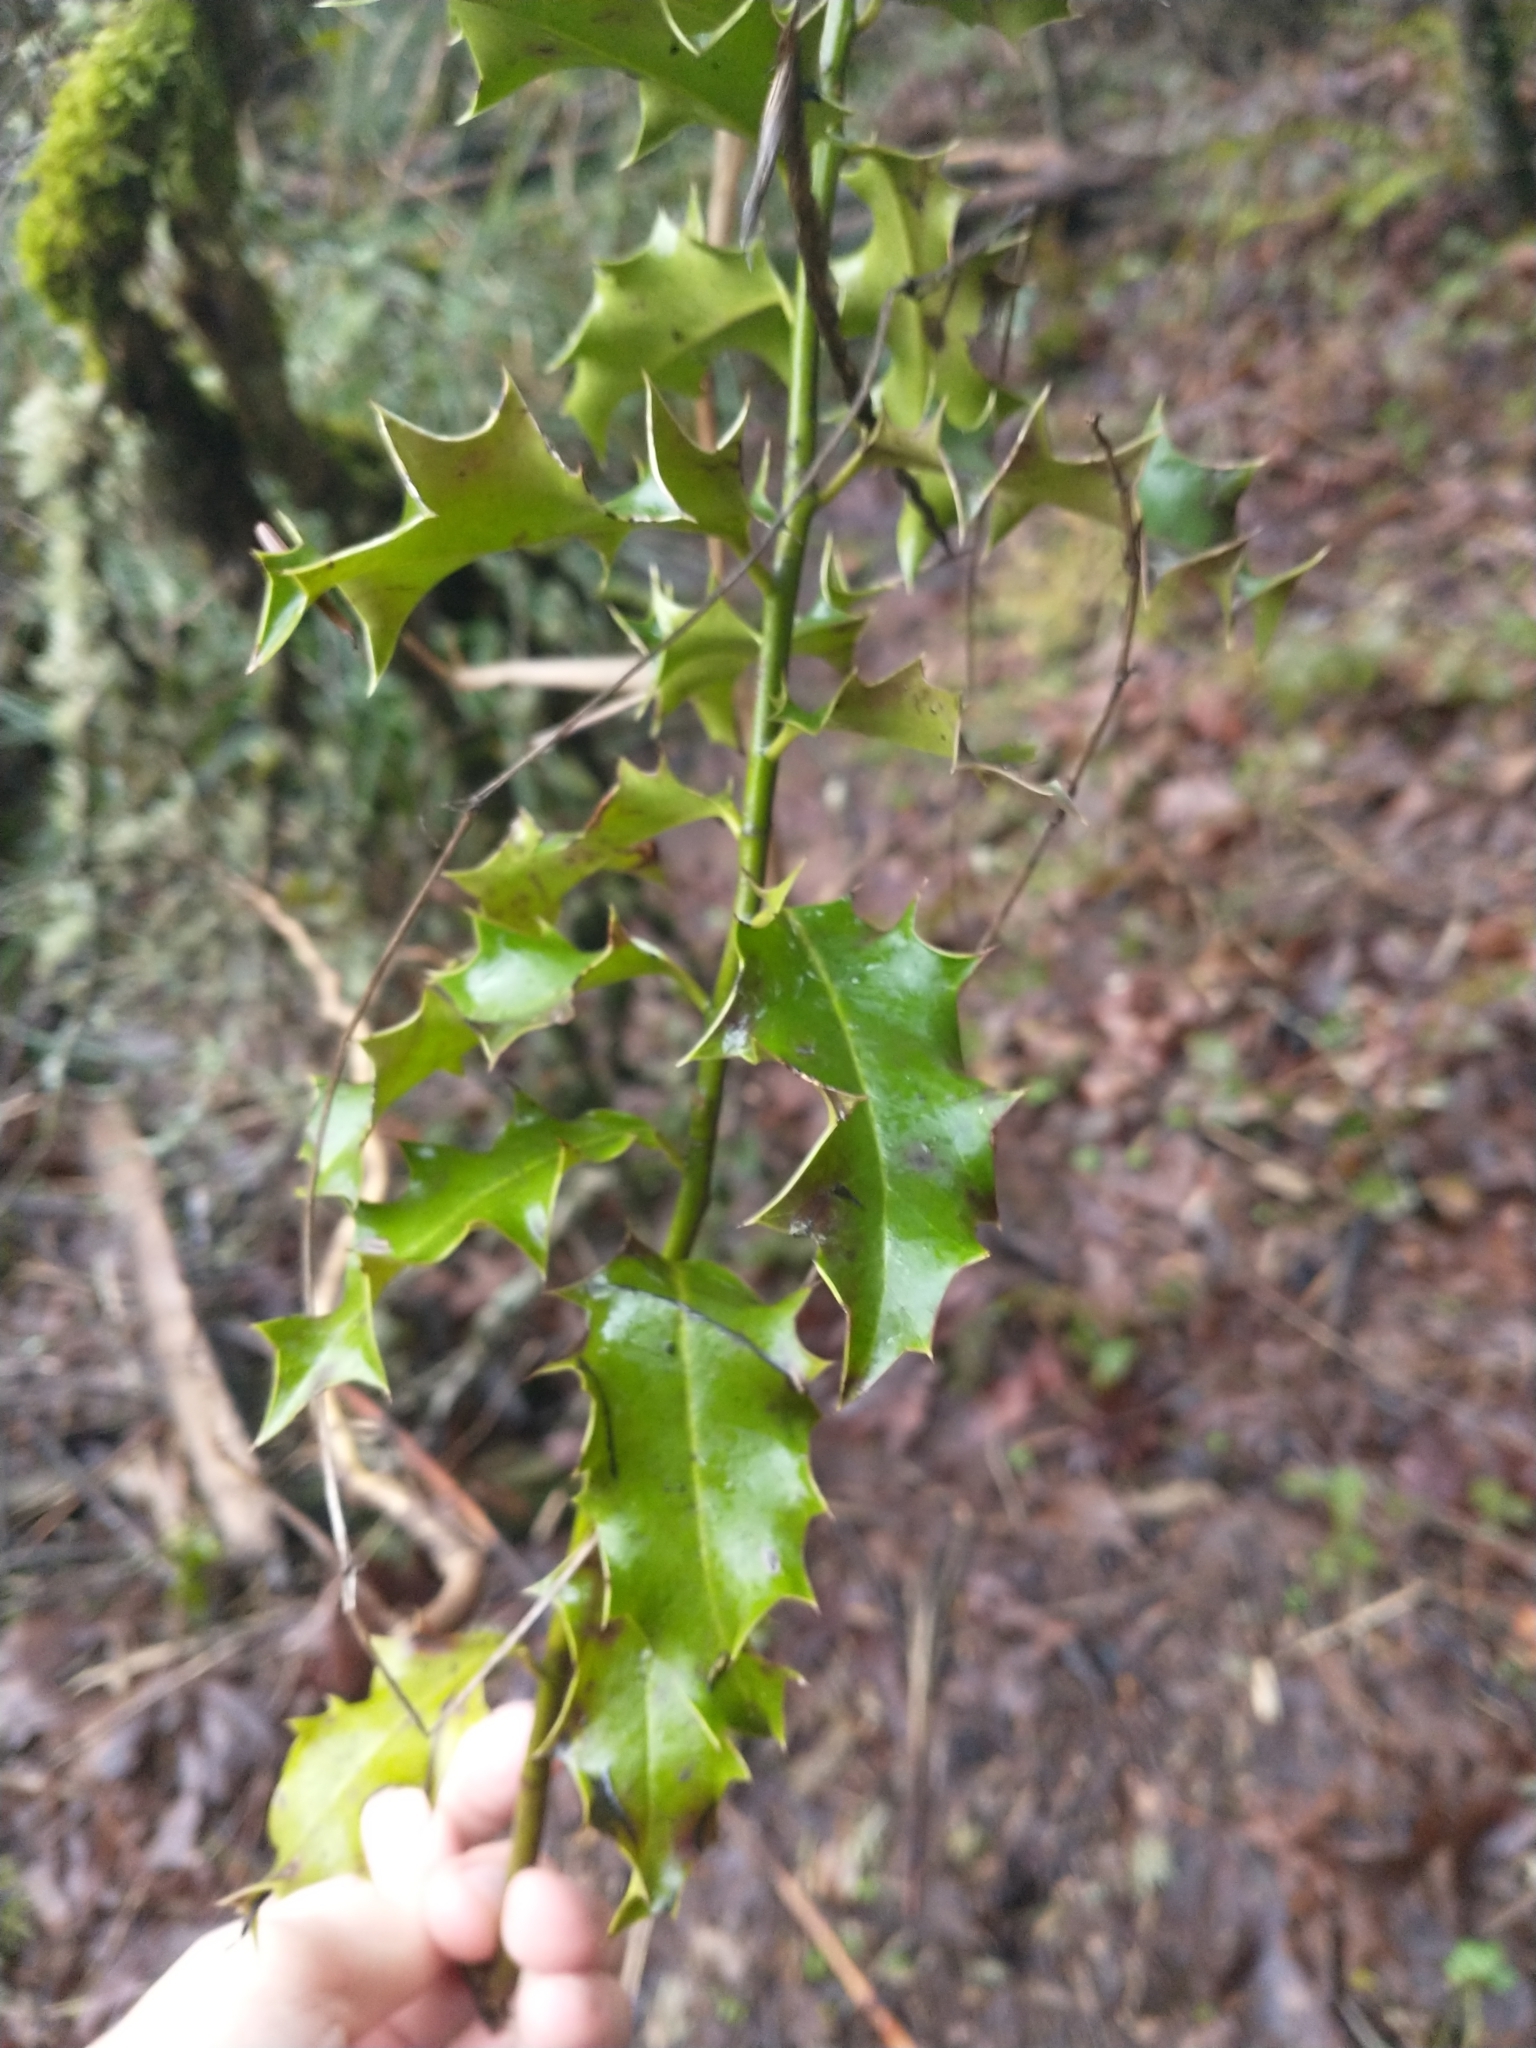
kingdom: Plantae
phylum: Tracheophyta
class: Magnoliopsida
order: Aquifoliales
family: Aquifoliaceae
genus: Ilex
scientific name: Ilex aquifolium
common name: English holly
